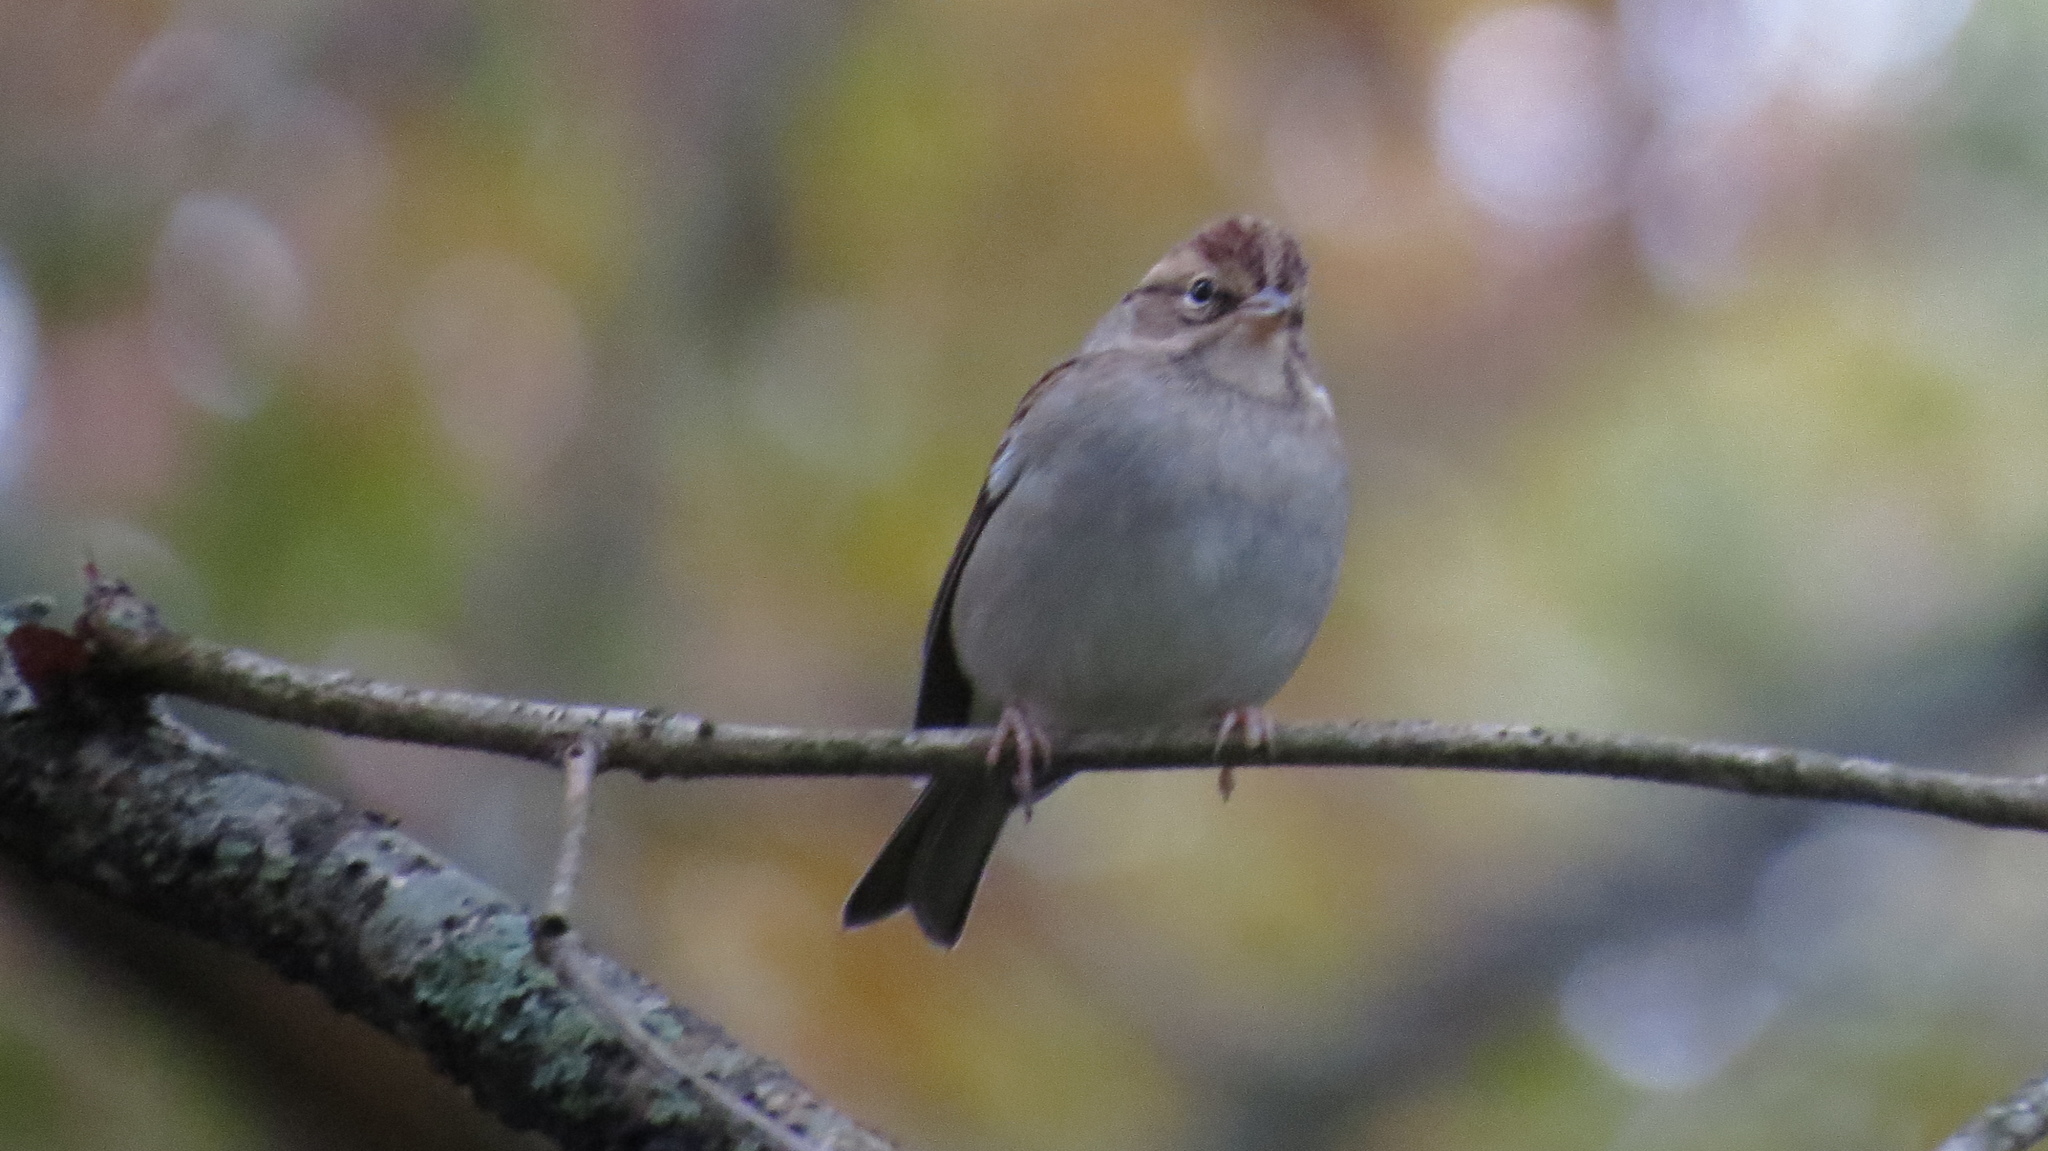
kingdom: Animalia
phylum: Chordata
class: Aves
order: Passeriformes
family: Passerellidae
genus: Spizella
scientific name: Spizella passerina
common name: Chipping sparrow
